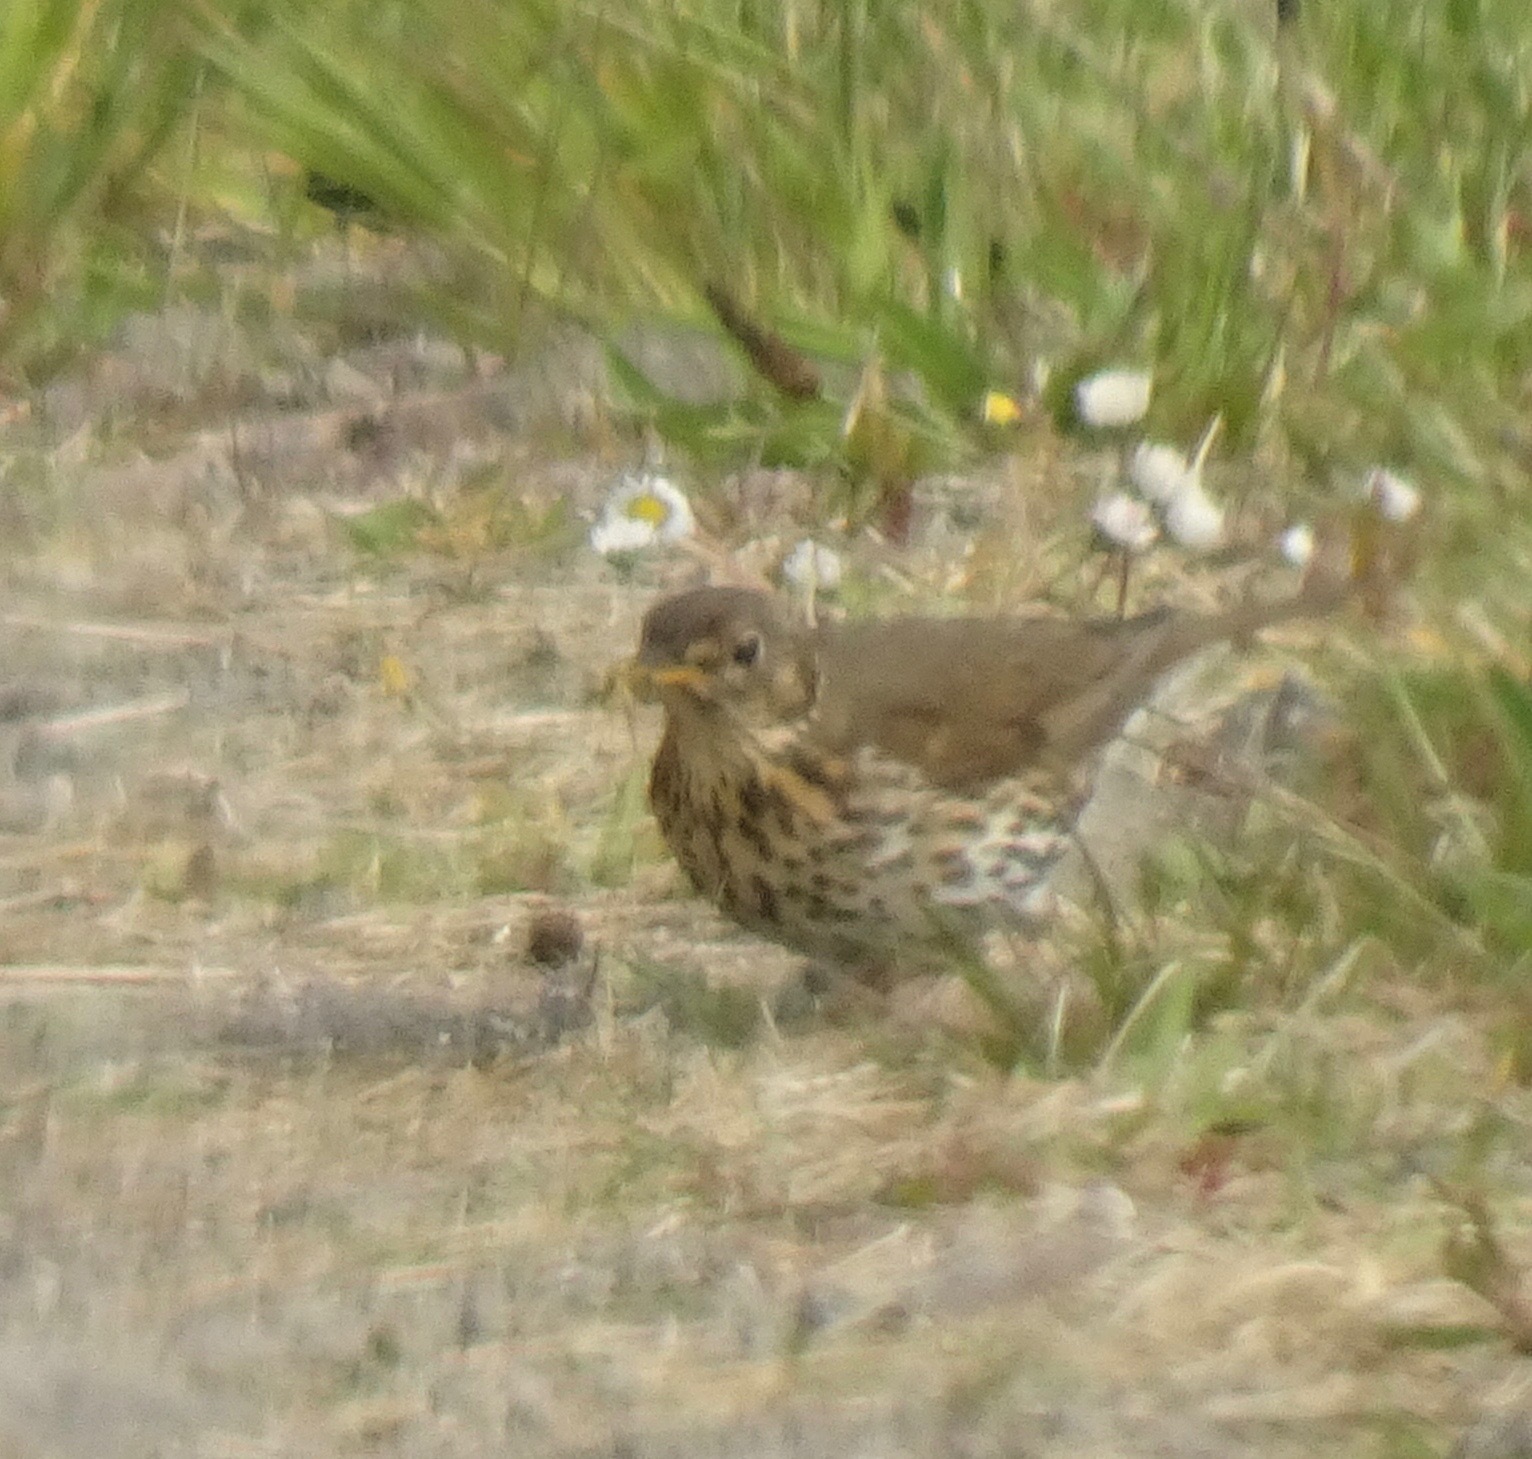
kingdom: Animalia
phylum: Chordata
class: Aves
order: Passeriformes
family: Turdidae
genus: Turdus
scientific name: Turdus philomelos
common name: Song thrush
